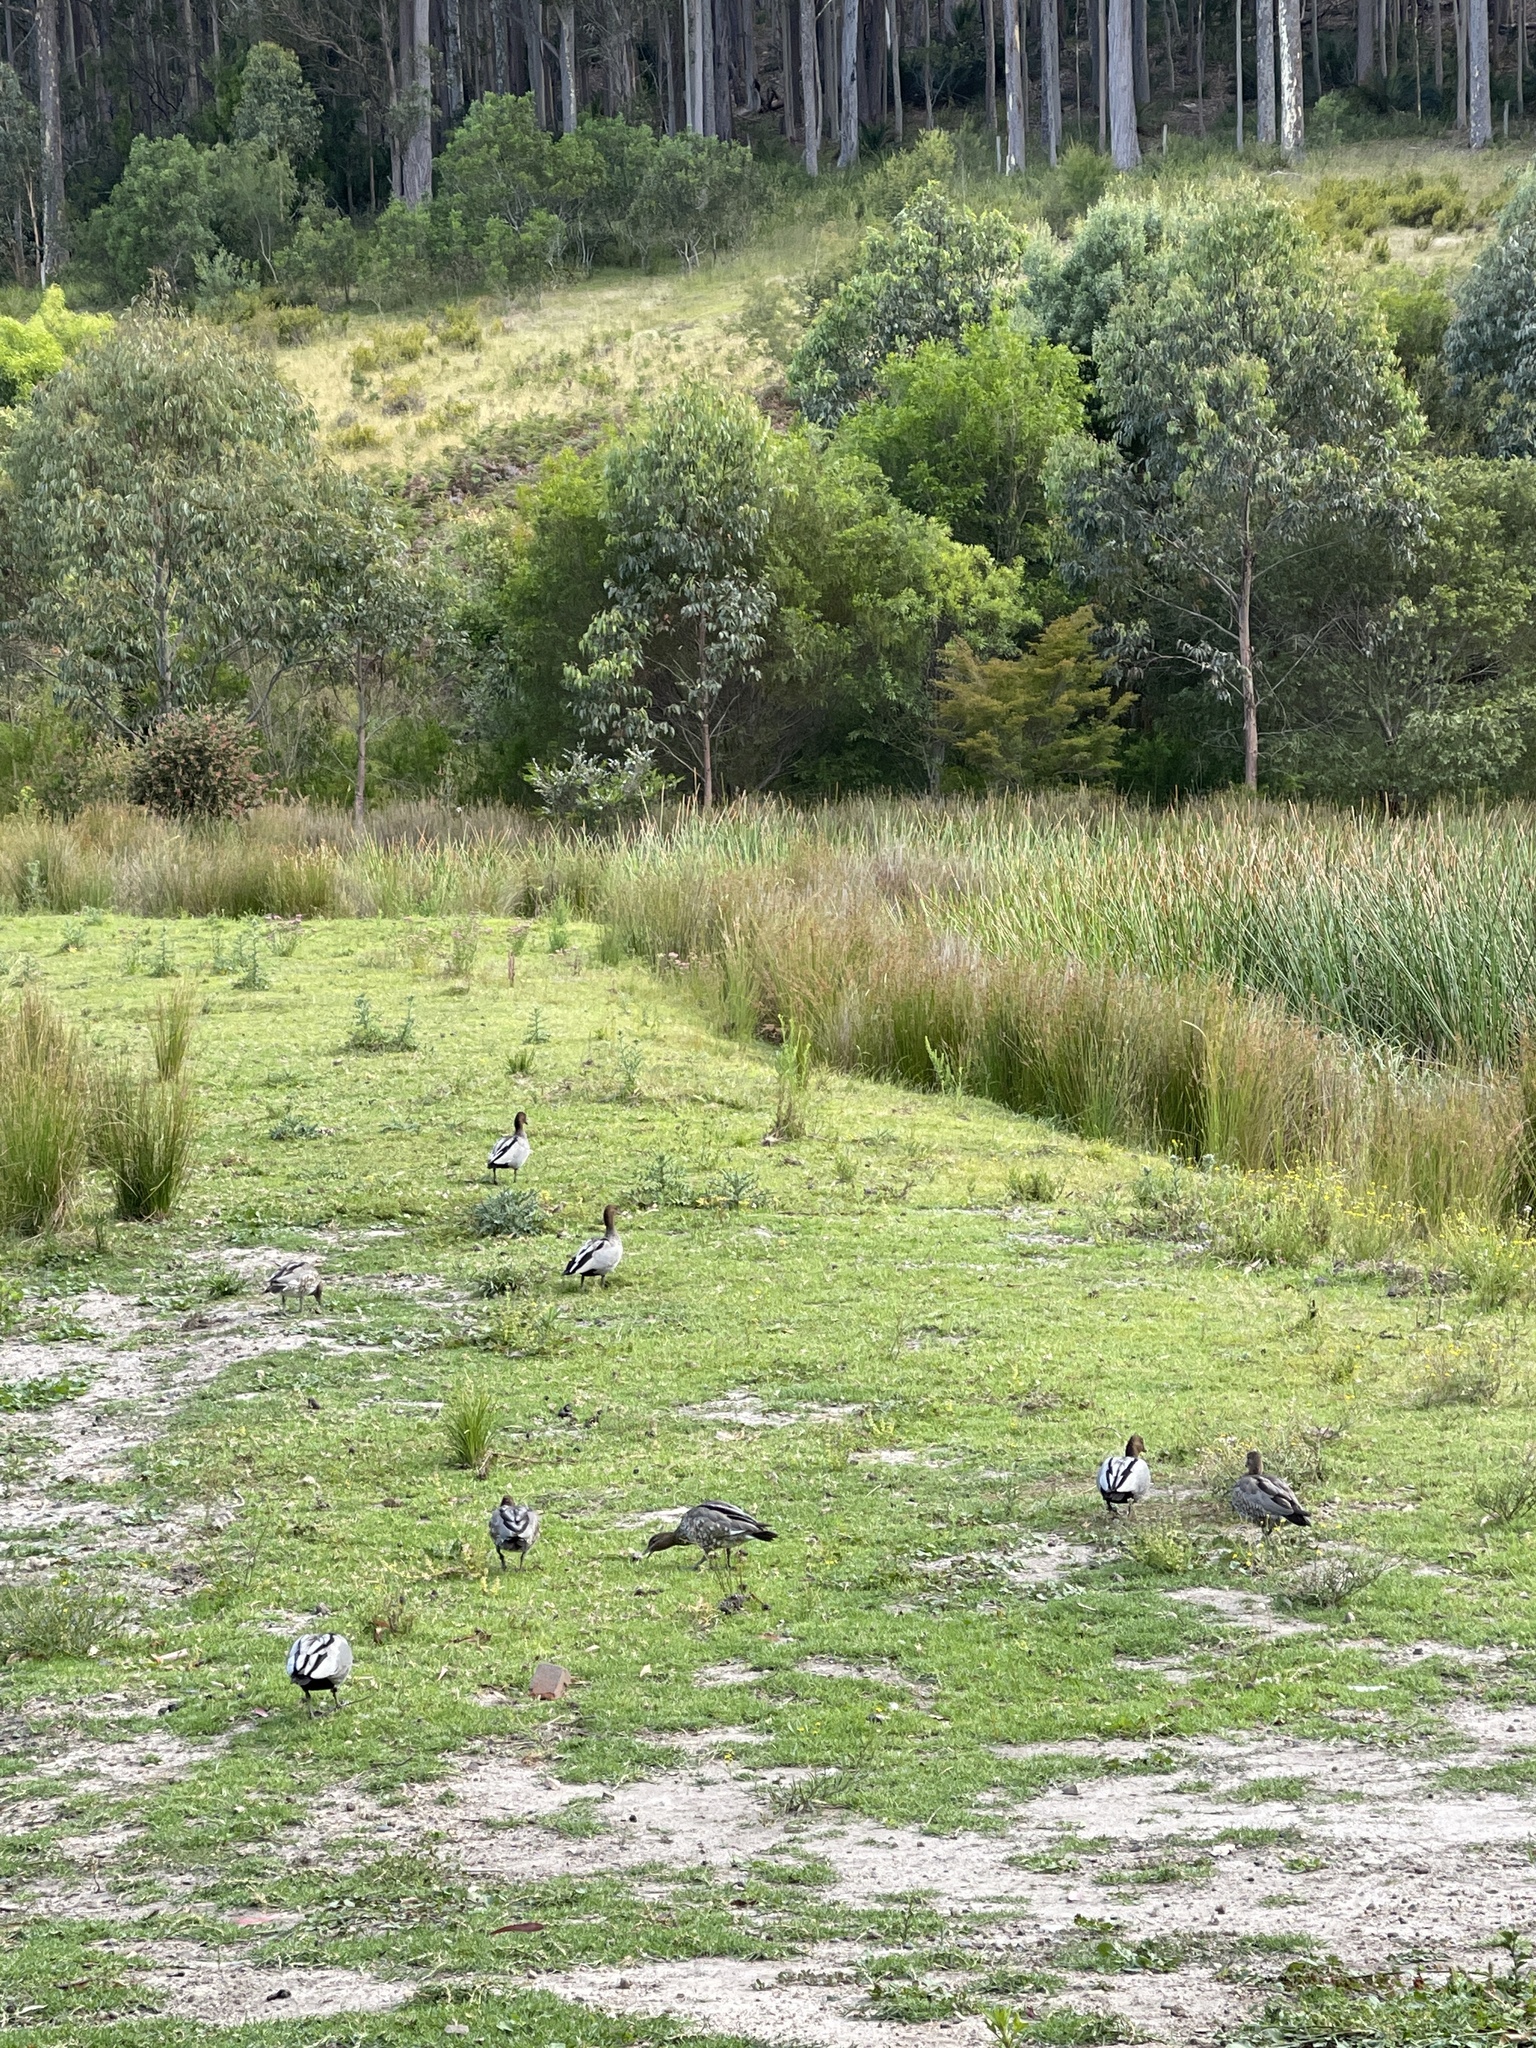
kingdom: Animalia
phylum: Chordata
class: Aves
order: Anseriformes
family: Anatidae
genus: Chenonetta
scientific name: Chenonetta jubata
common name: Maned duck
